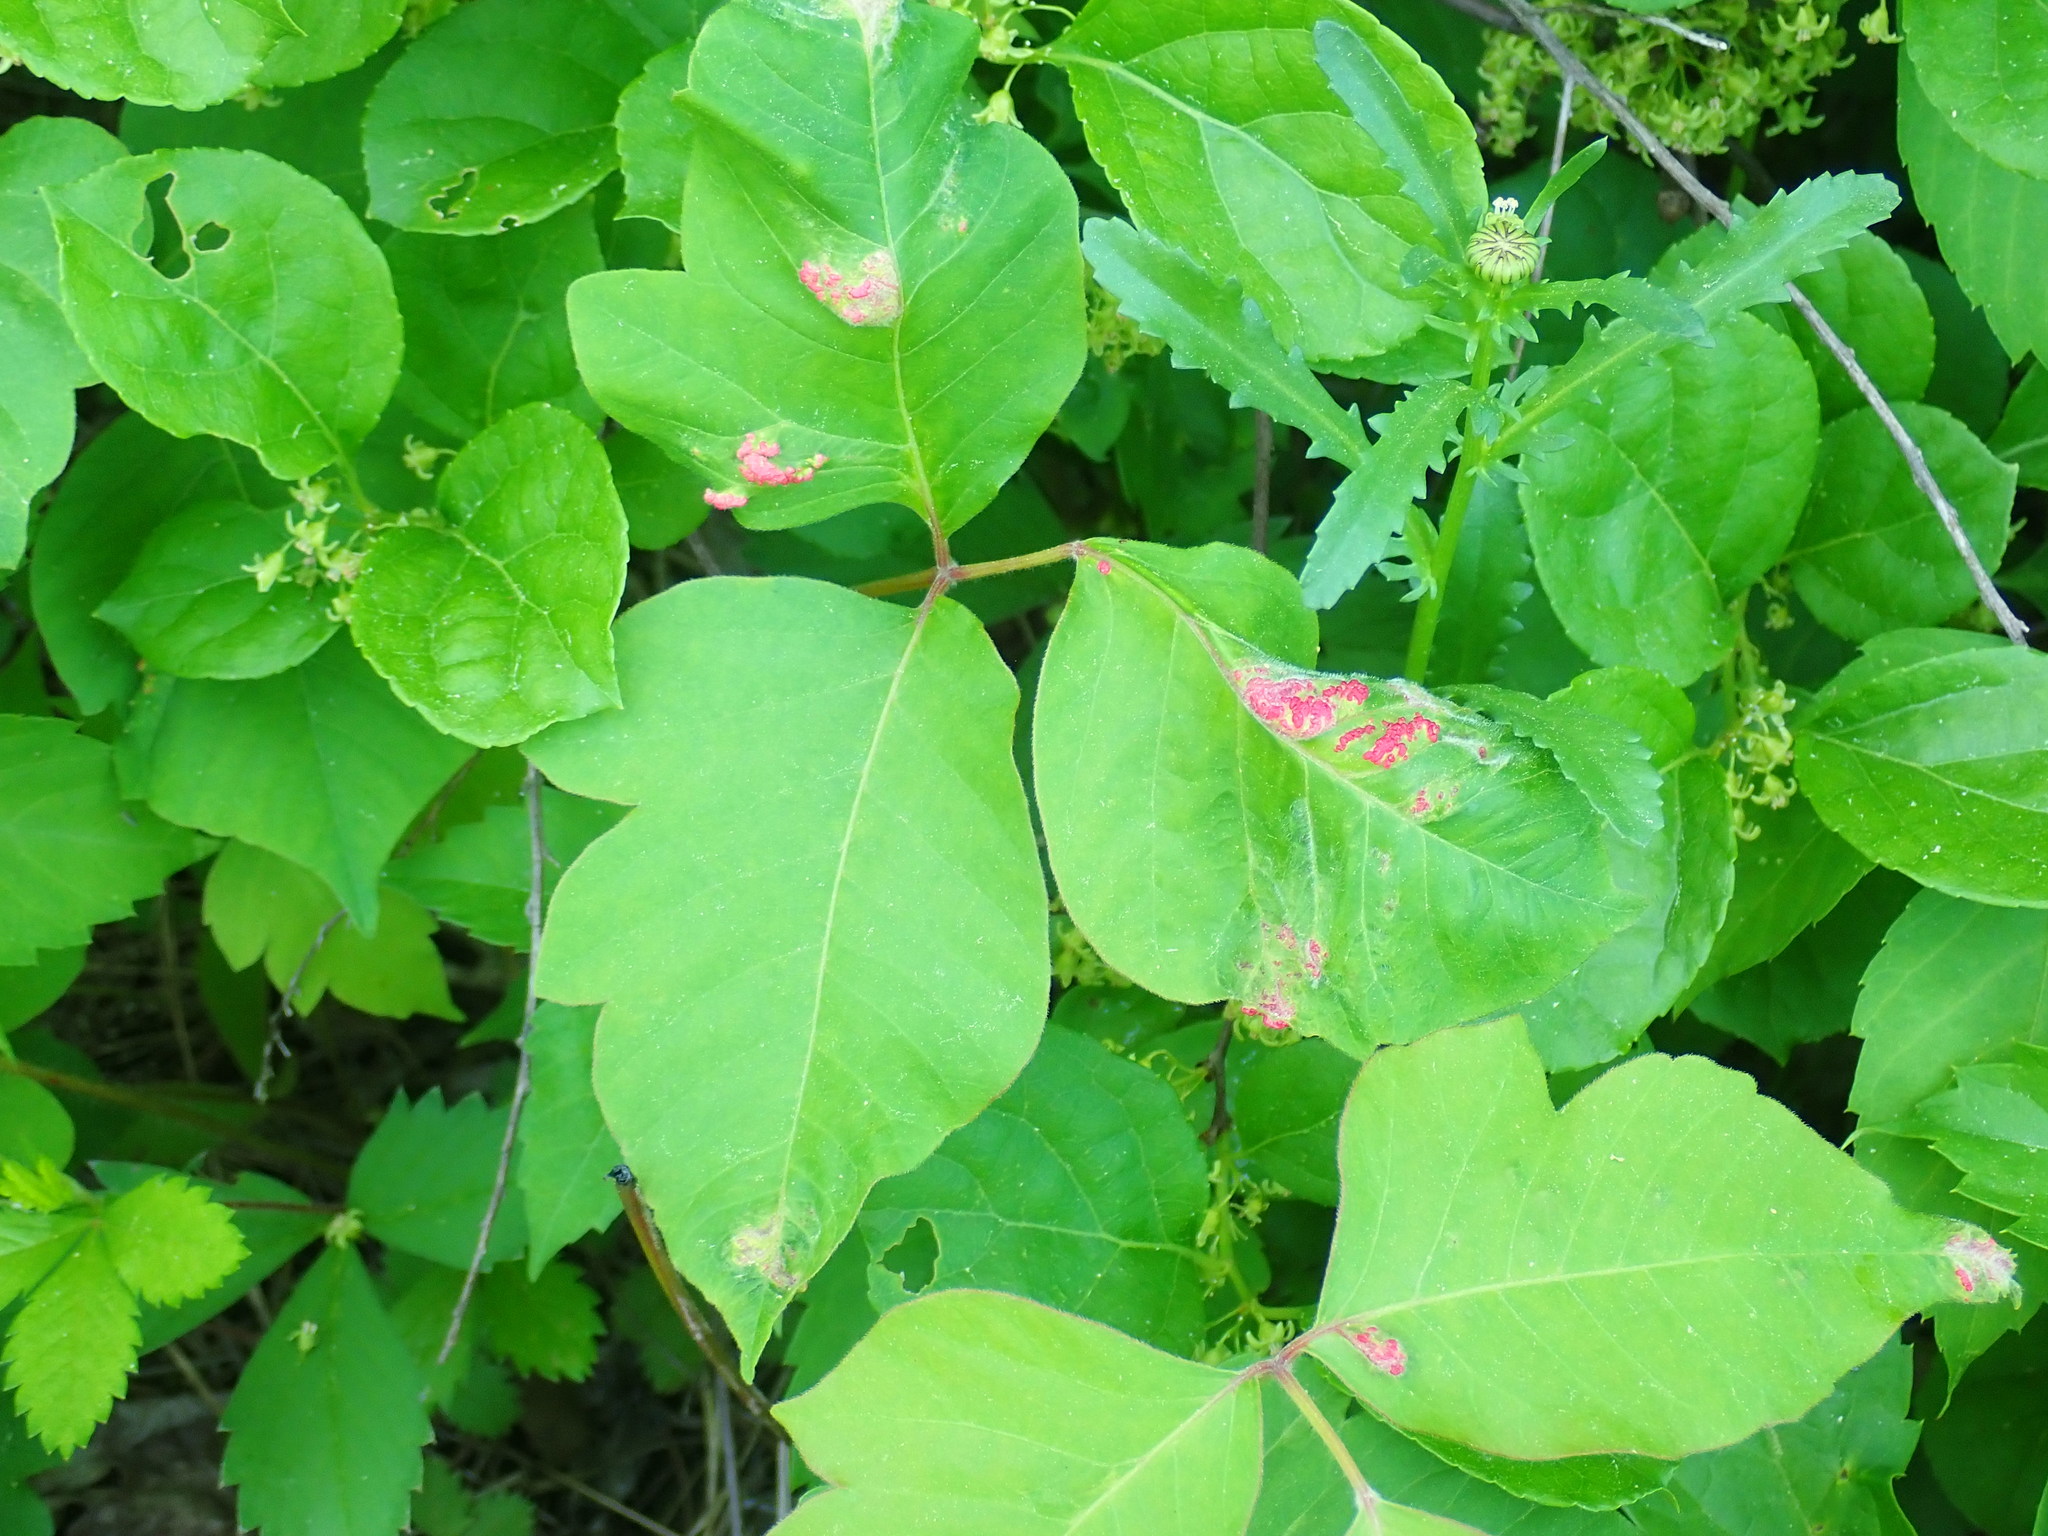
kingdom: Animalia
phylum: Arthropoda
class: Arachnida
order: Trombidiformes
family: Eriophyidae
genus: Aculops
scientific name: Aculops
